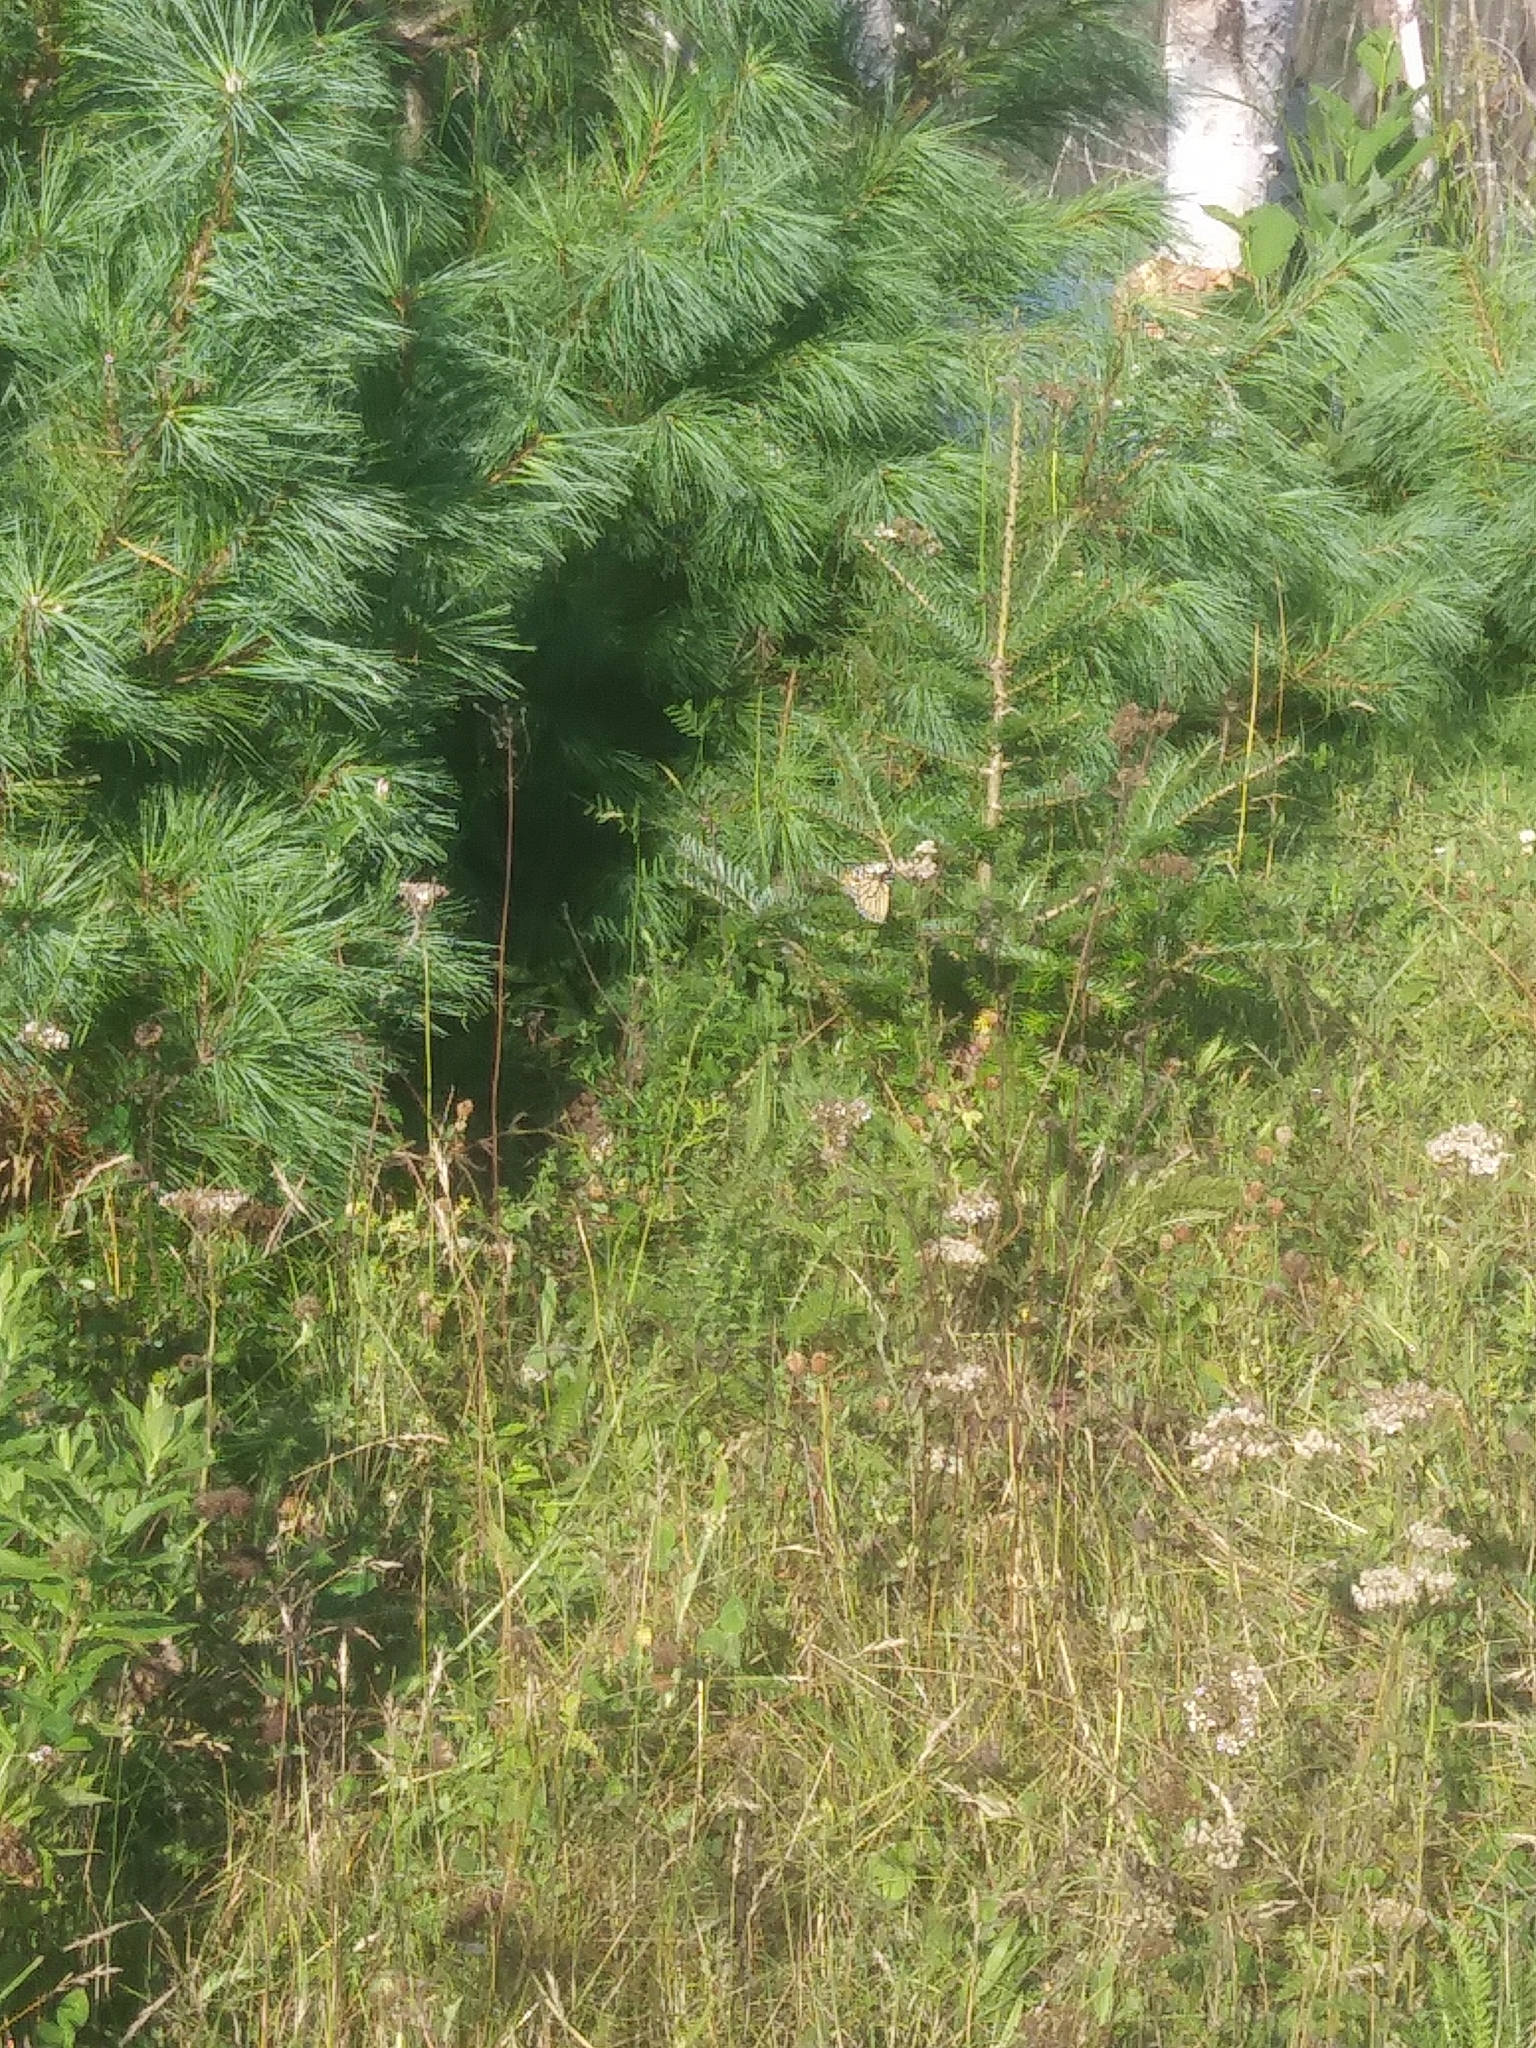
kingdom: Animalia
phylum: Arthropoda
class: Insecta
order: Lepidoptera
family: Nymphalidae
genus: Danaus
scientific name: Danaus plexippus
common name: Monarch
